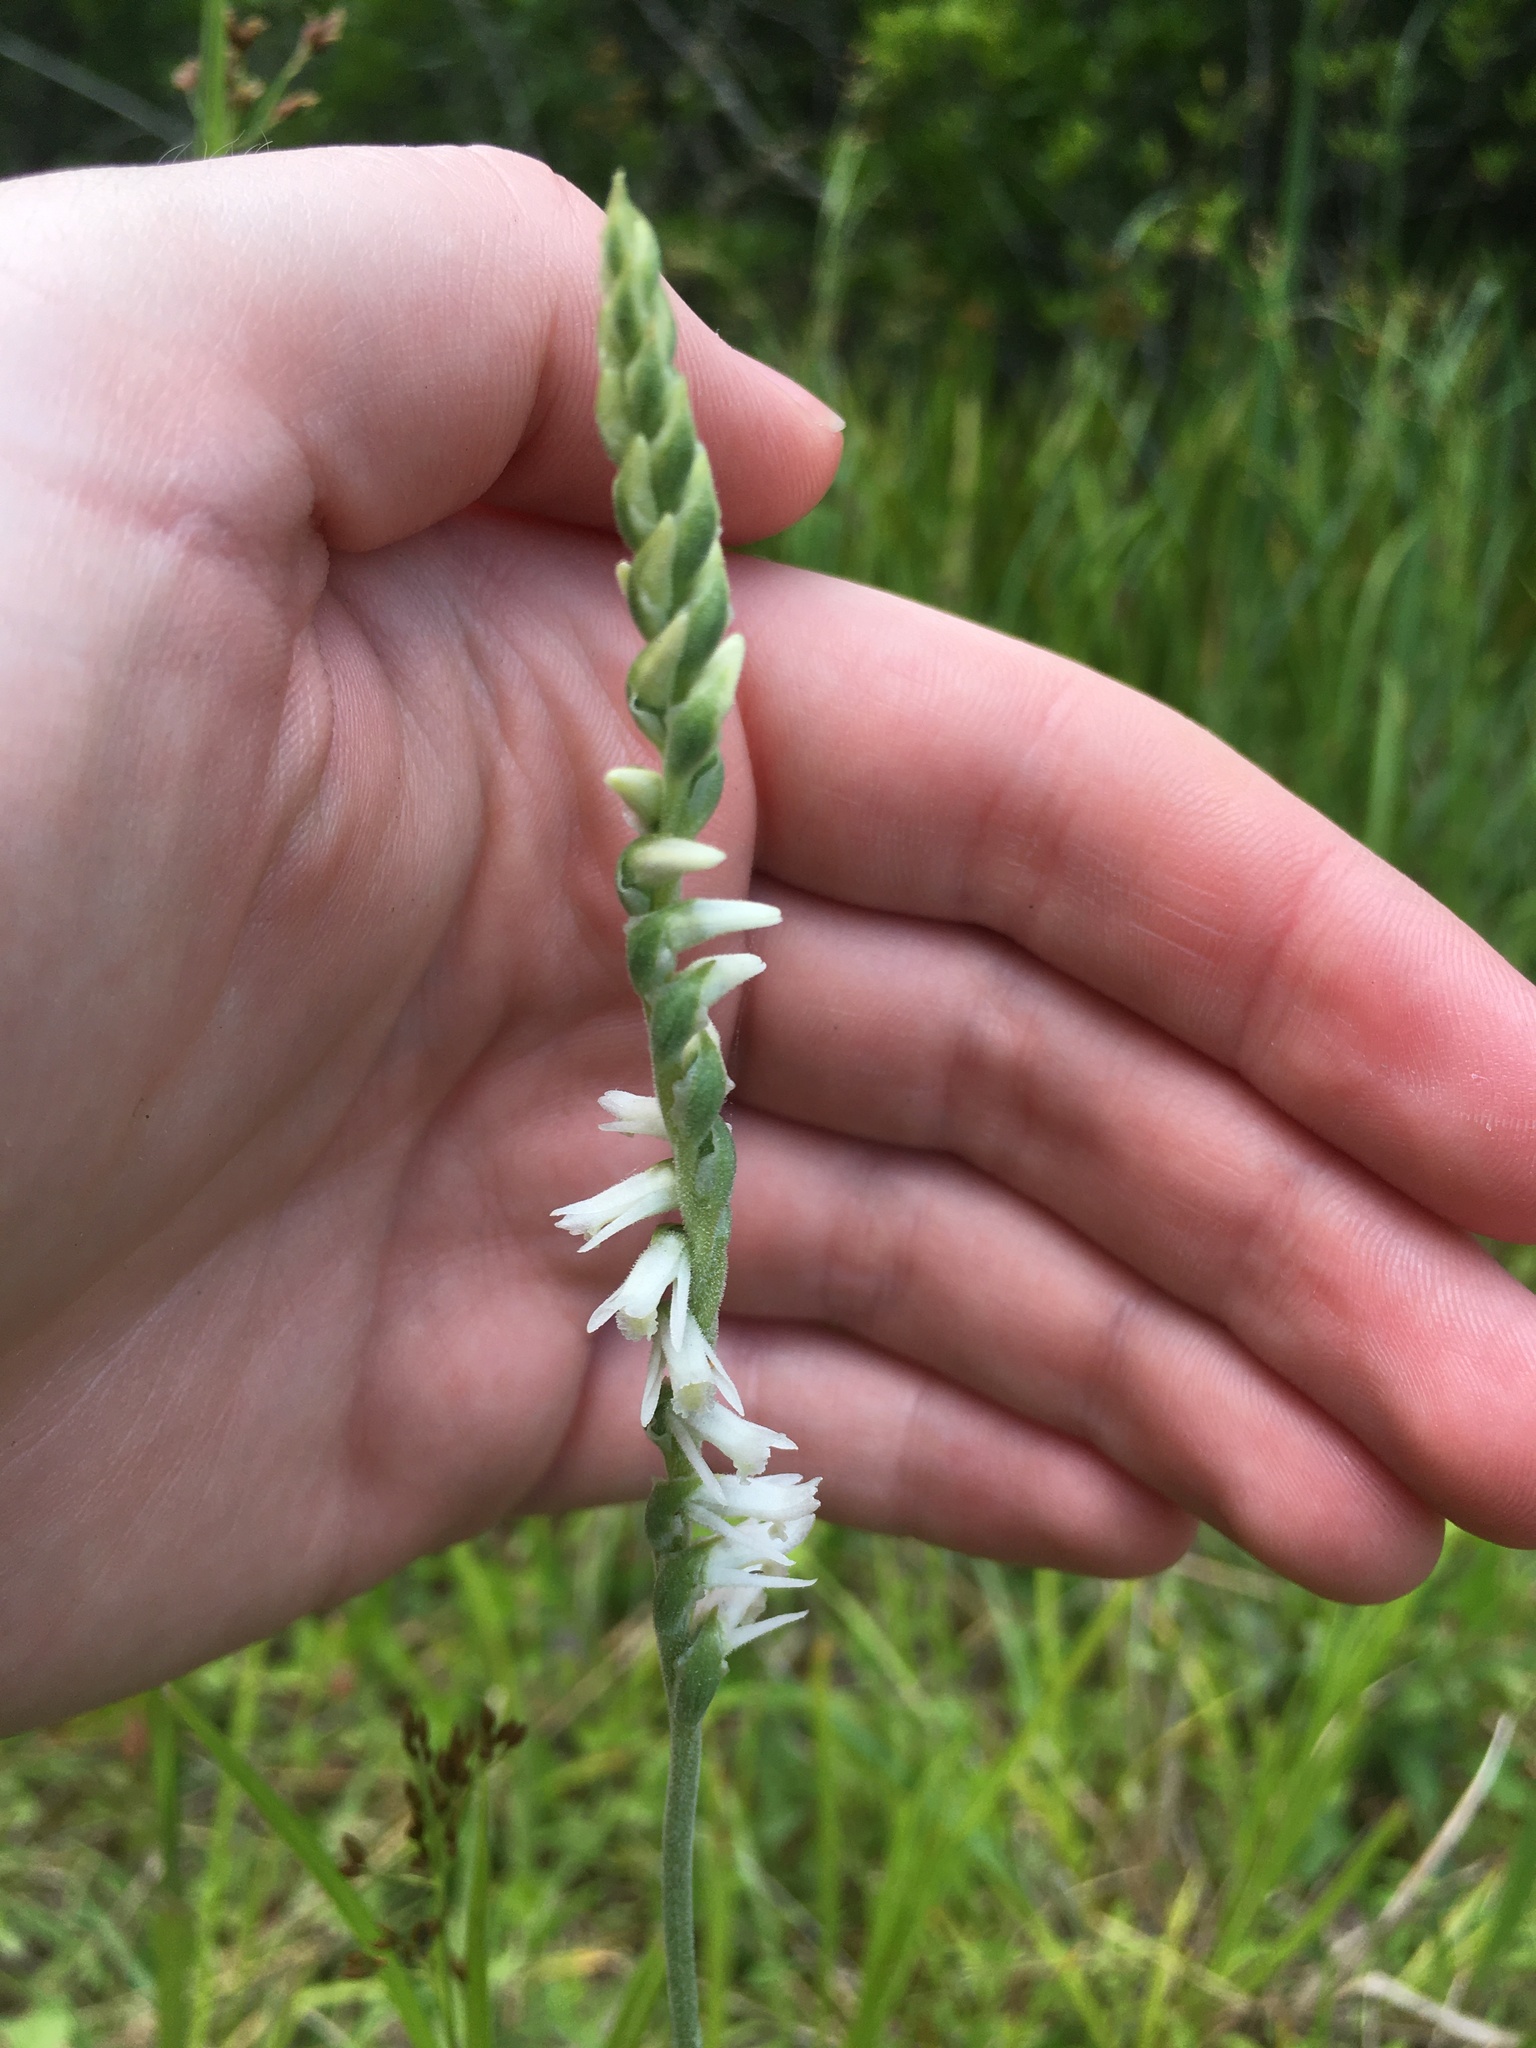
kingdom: Plantae
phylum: Tracheophyta
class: Liliopsida
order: Asparagales
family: Orchidaceae
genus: Spiranthes
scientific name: Spiranthes vernalis
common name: Spring ladies'-tresses
